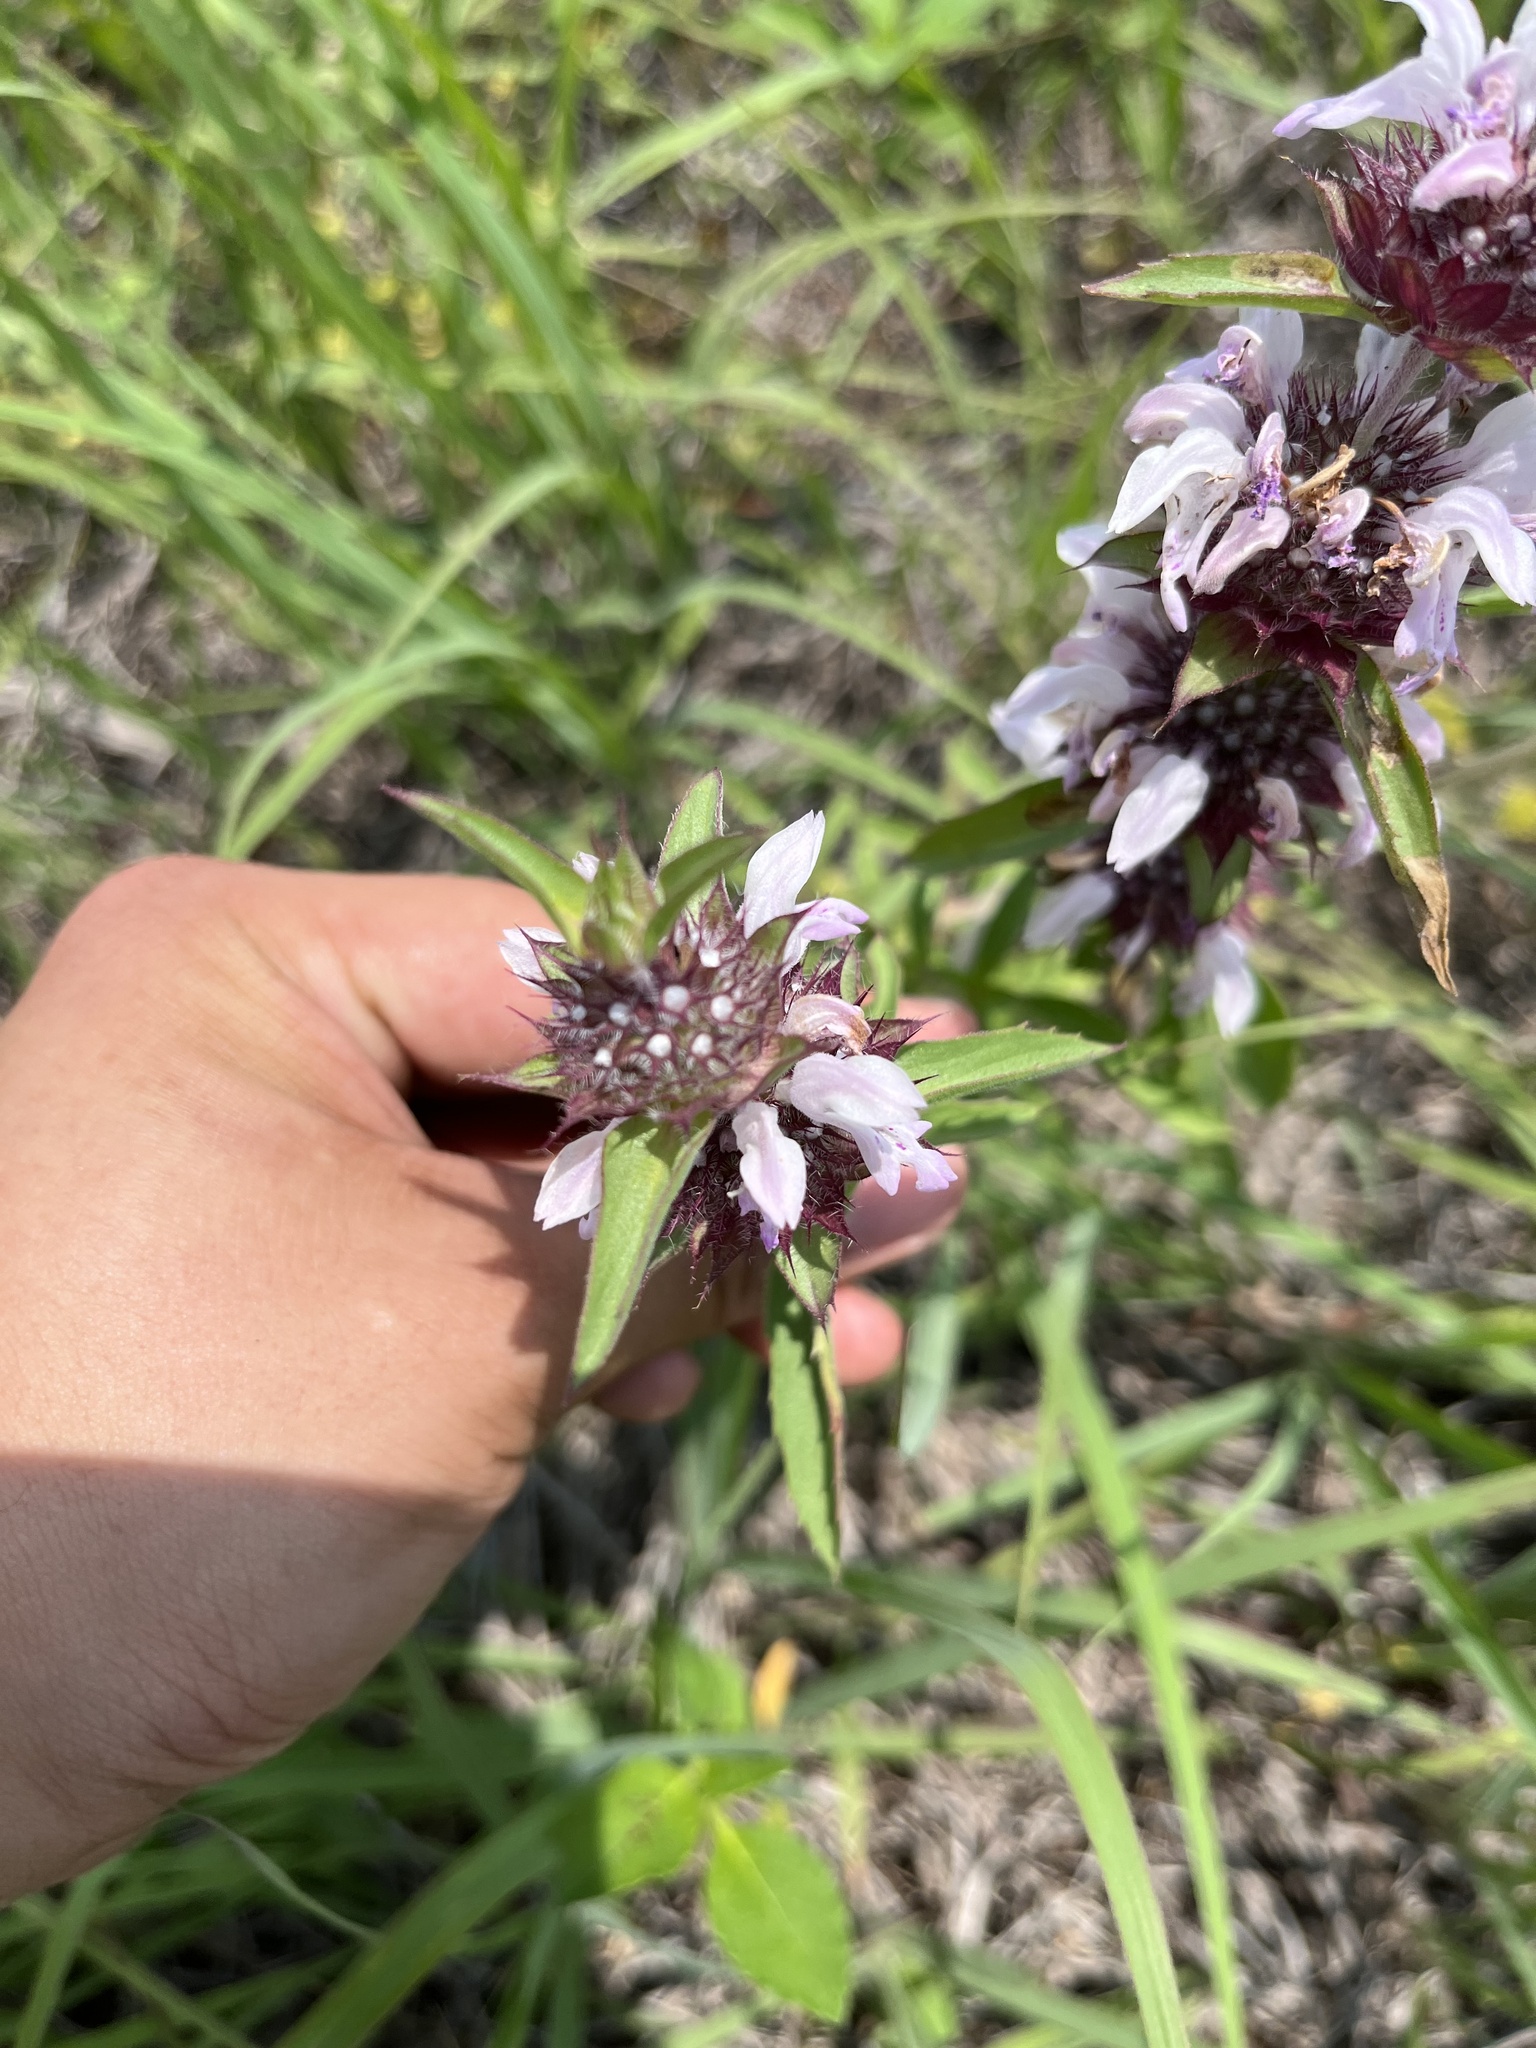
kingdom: Plantae
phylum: Tracheophyta
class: Magnoliopsida
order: Lamiales
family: Lamiaceae
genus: Monarda
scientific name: Monarda clinopodioides
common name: Basil beebalm
